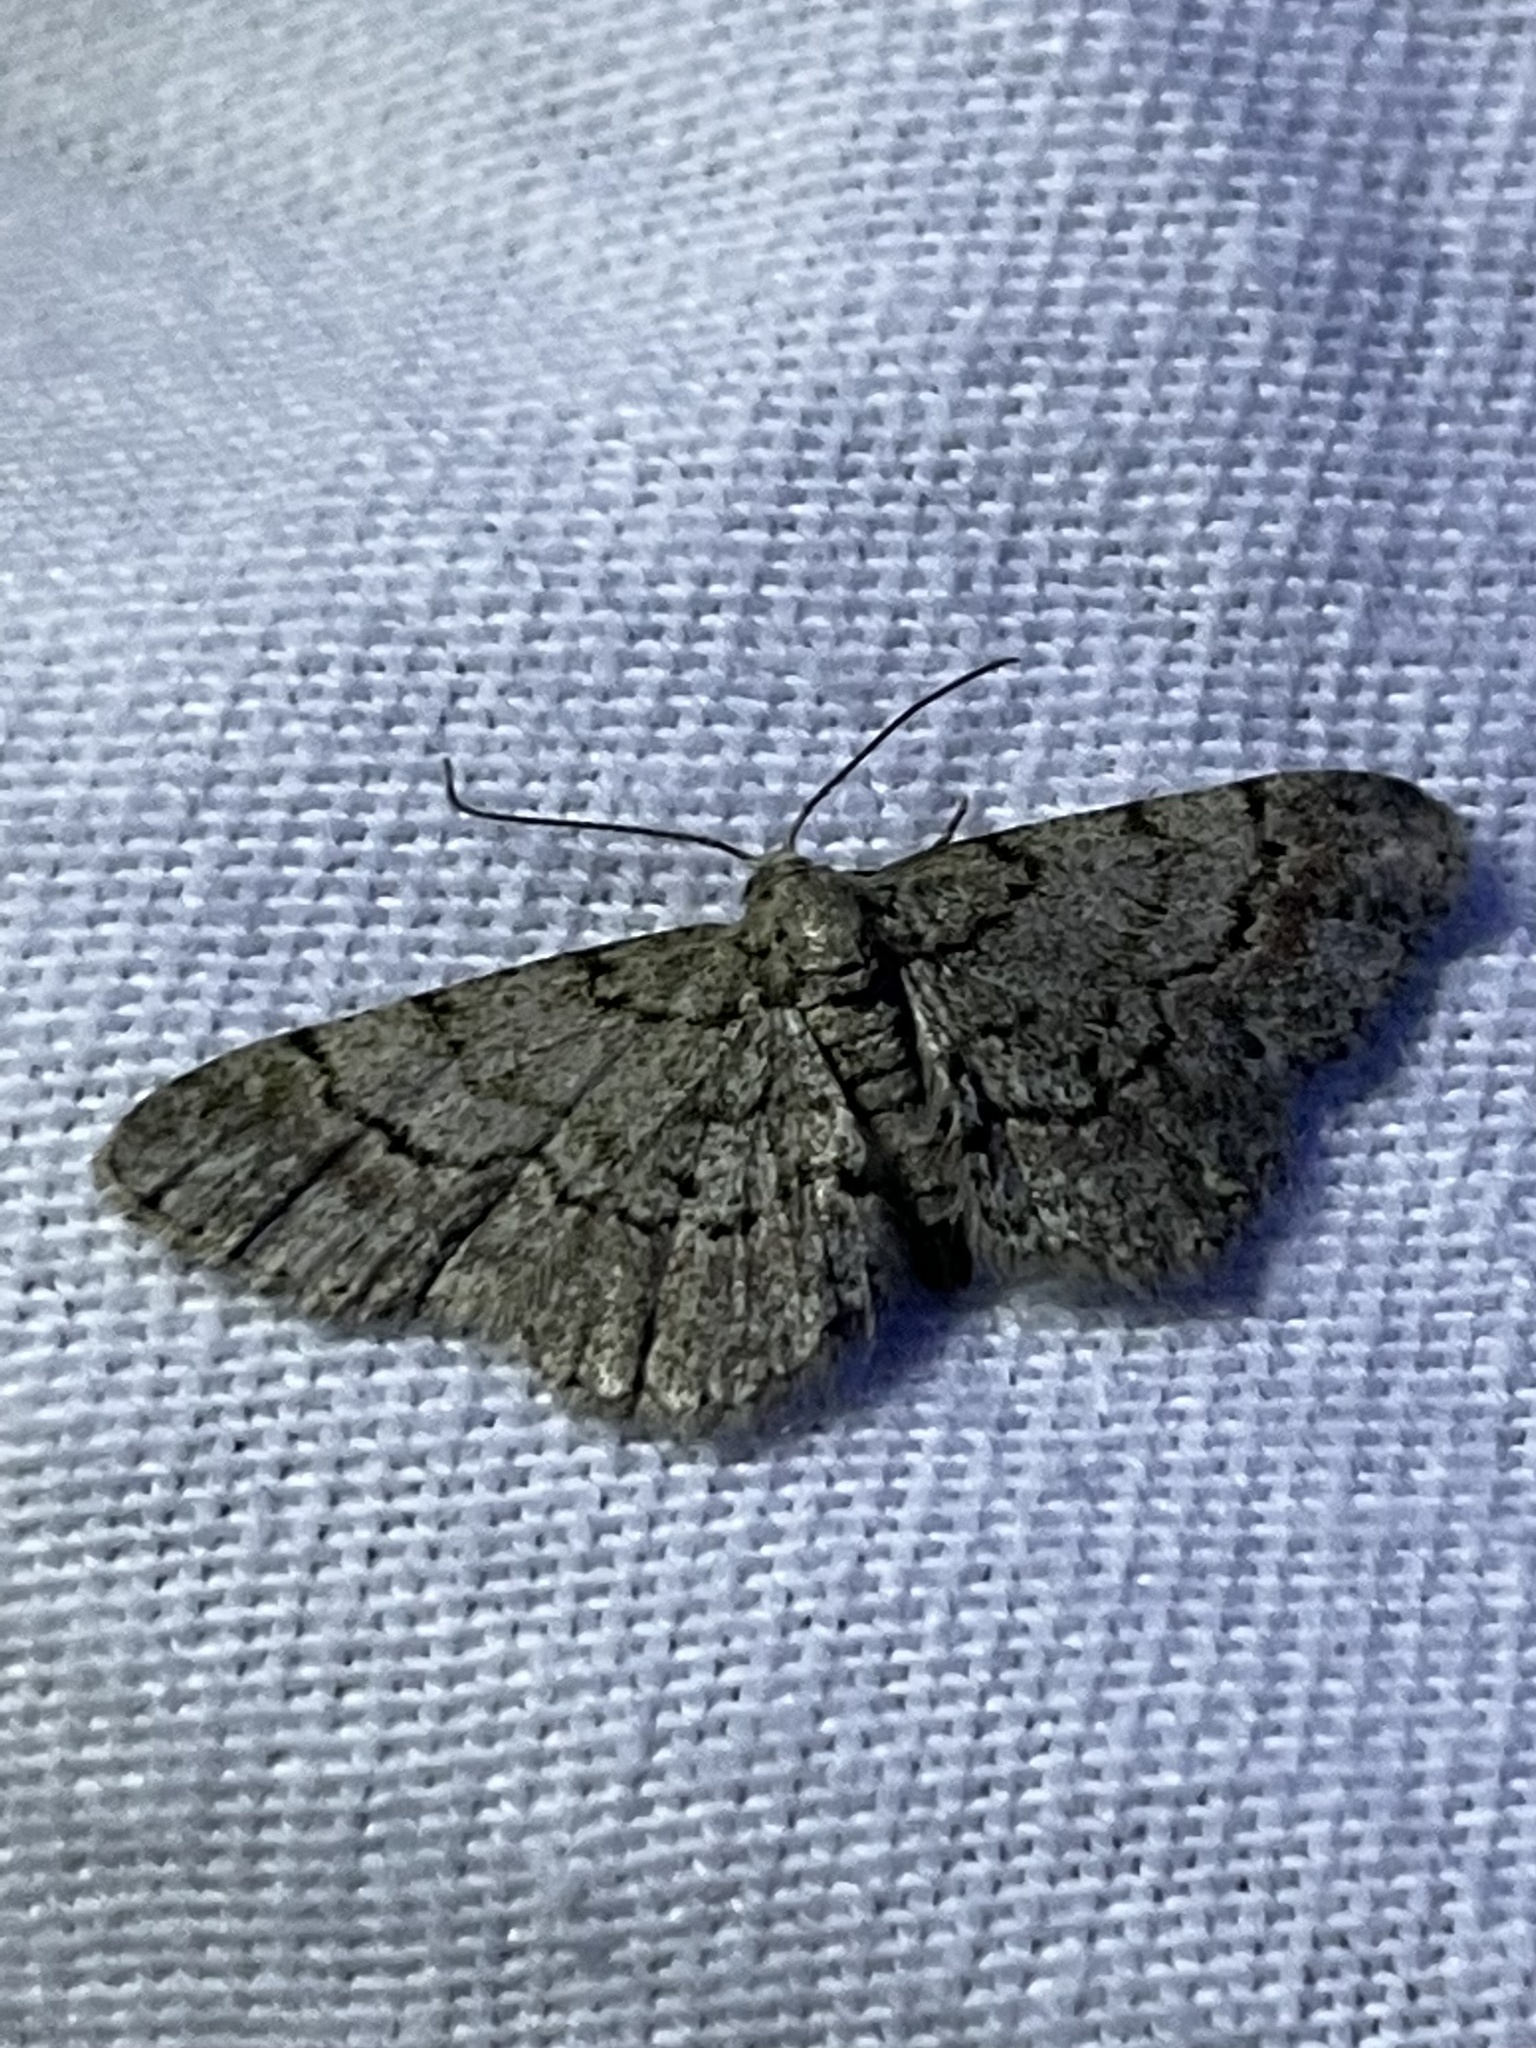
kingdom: Animalia
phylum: Arthropoda
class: Insecta
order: Lepidoptera
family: Geometridae
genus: Glenoides
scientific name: Glenoides texanaria
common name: Texas gray
